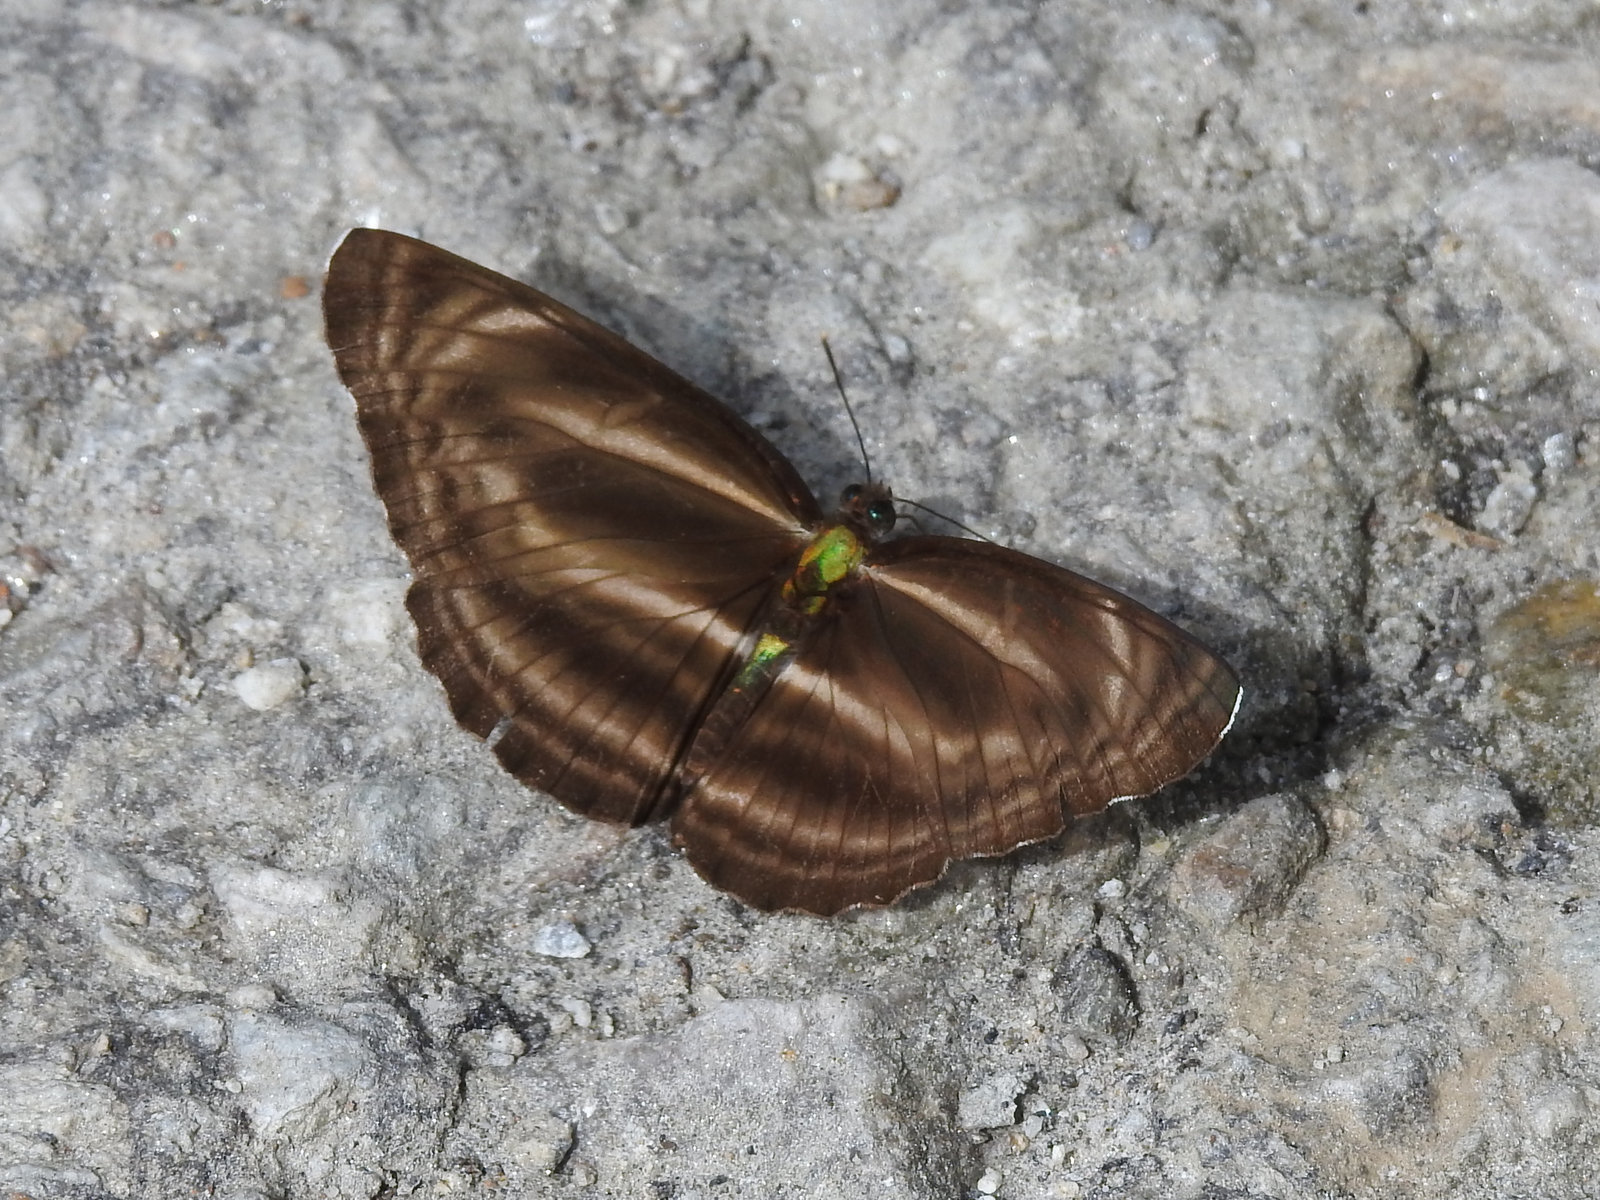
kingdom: Animalia
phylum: Arthropoda
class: Insecta
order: Lepidoptera
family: Nymphalidae
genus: Neptis
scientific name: Neptis
